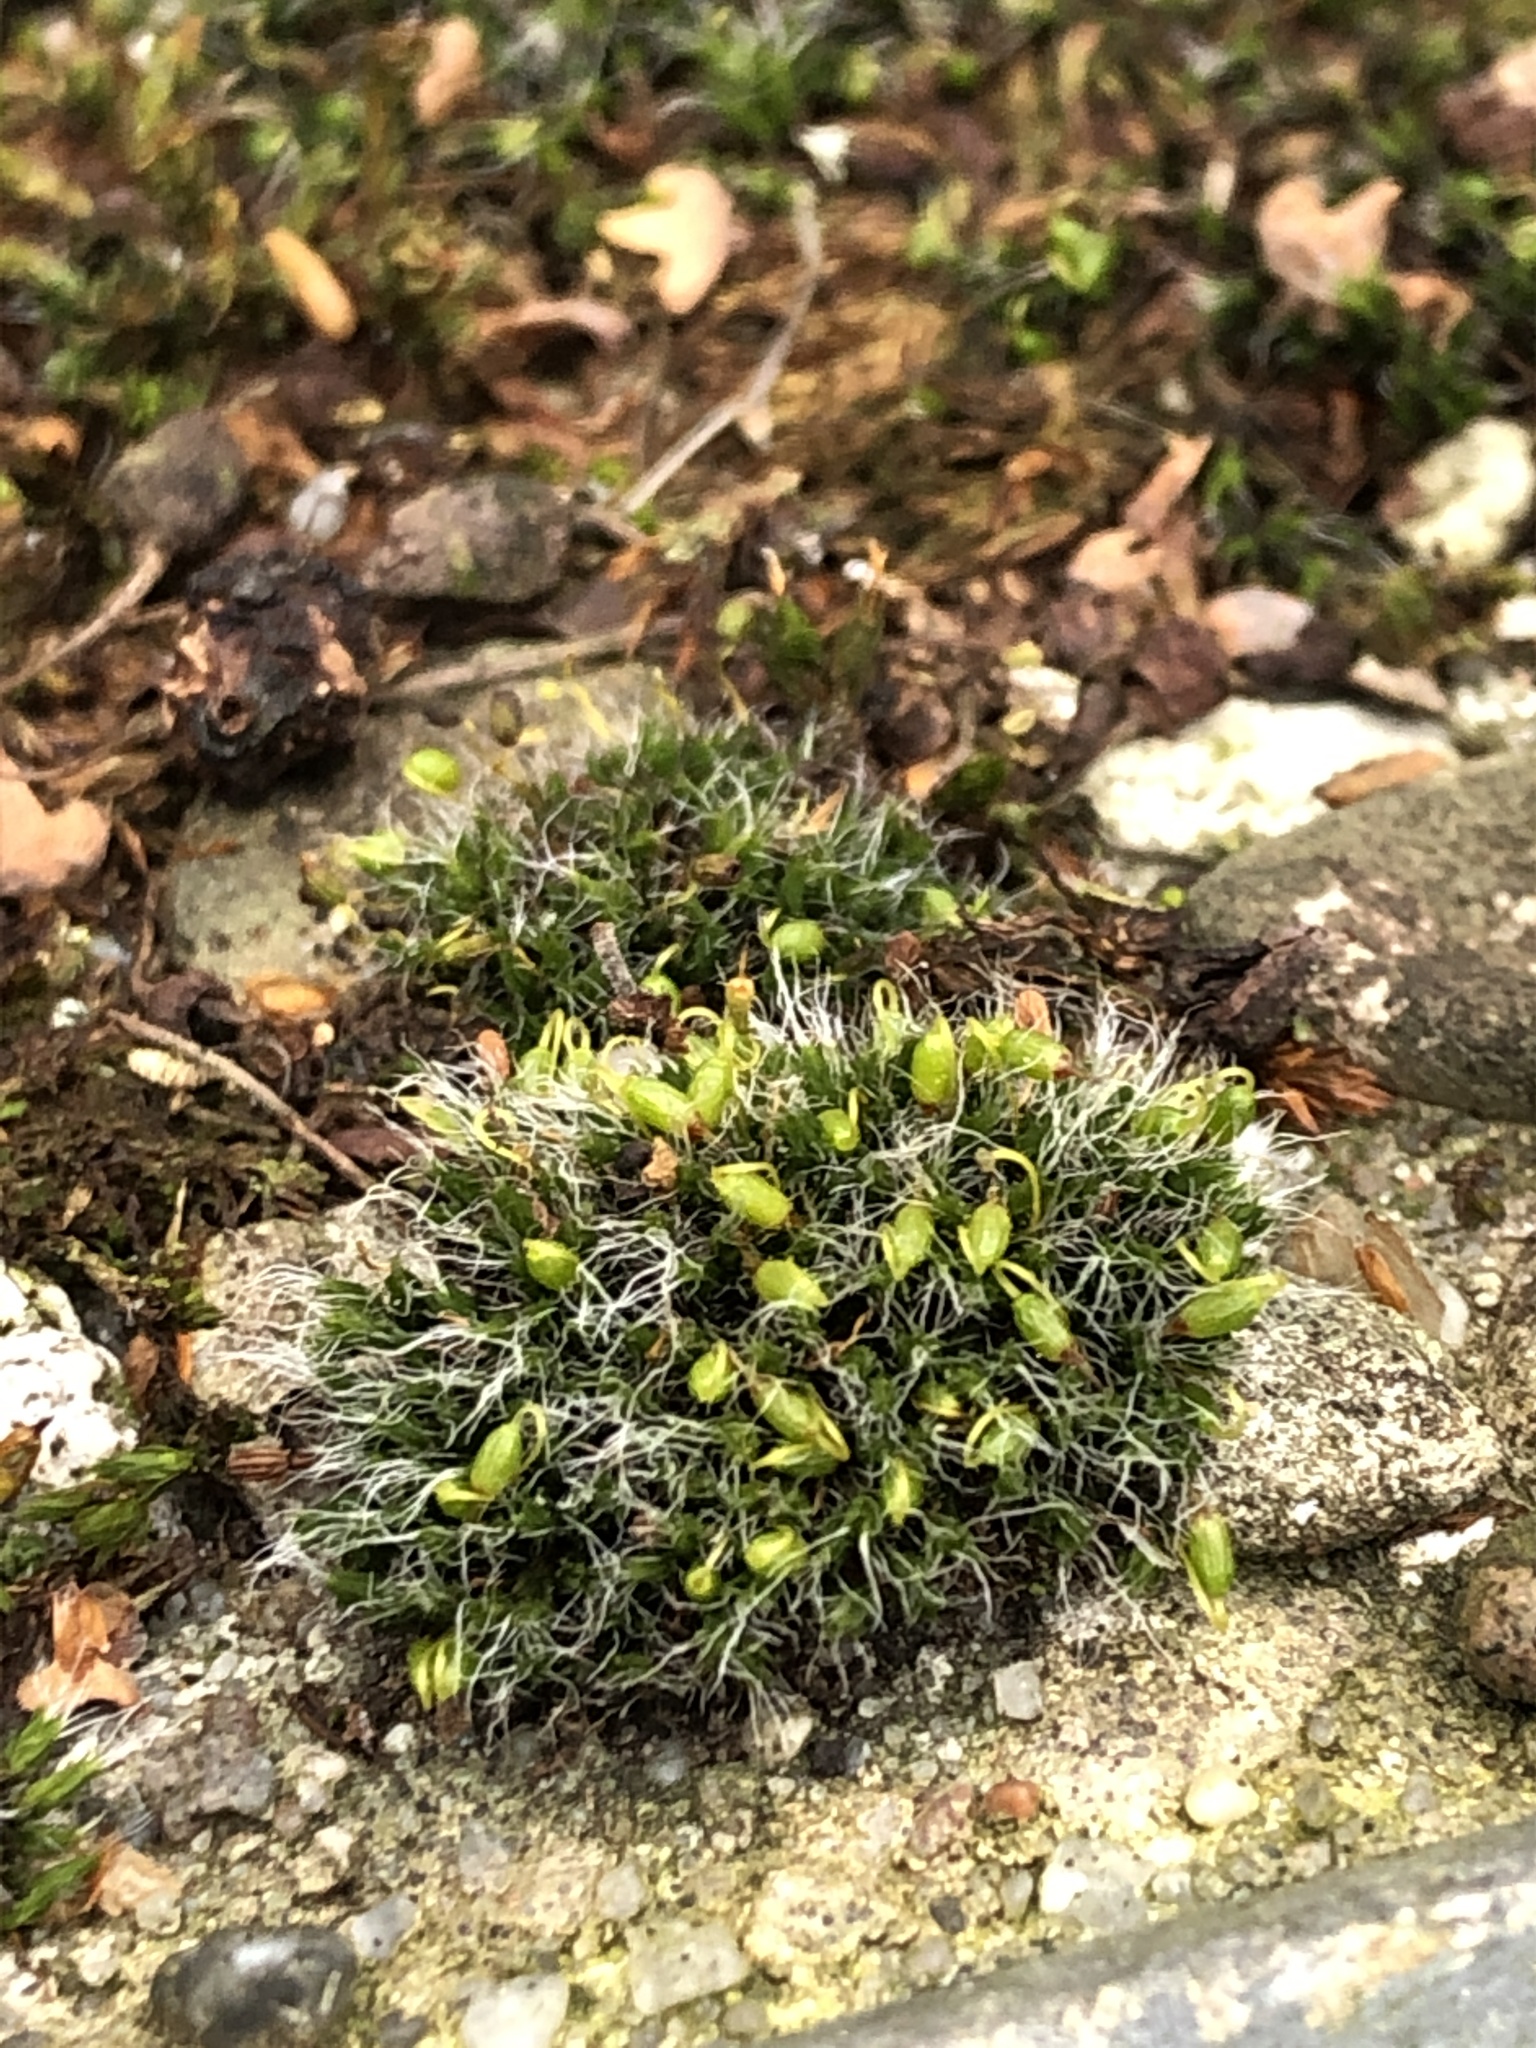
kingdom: Plantae
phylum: Bryophyta
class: Bryopsida
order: Grimmiales
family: Grimmiaceae
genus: Grimmia
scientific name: Grimmia pulvinata
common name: Grey-cushioned grimmia
